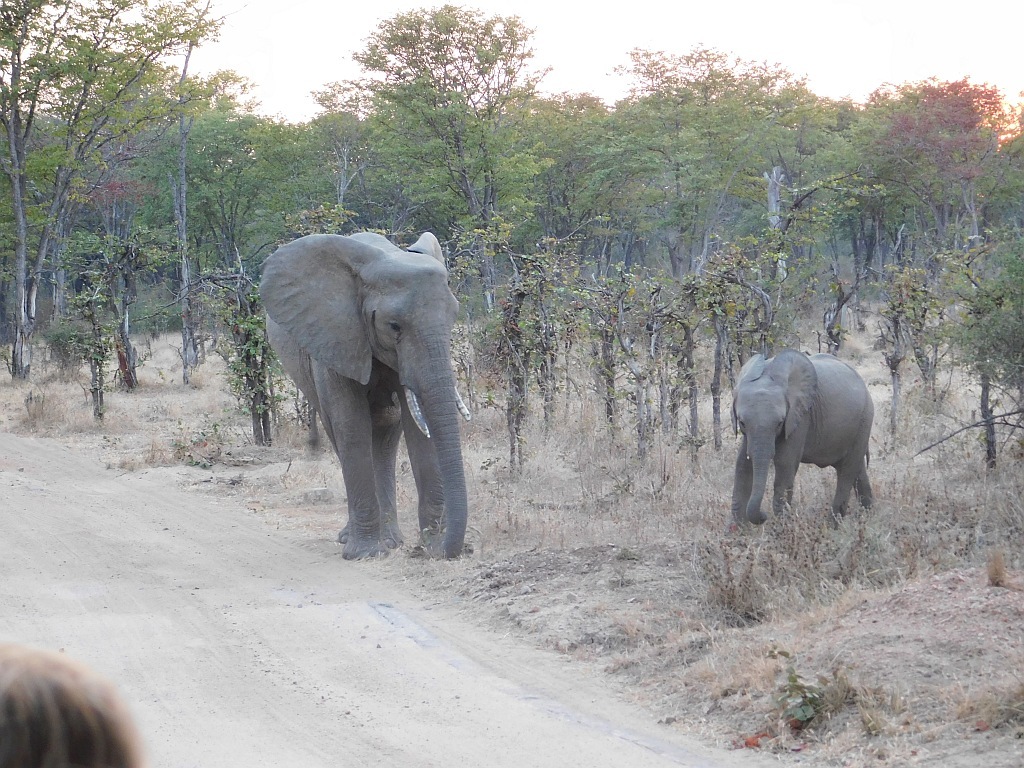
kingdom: Animalia
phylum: Chordata
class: Mammalia
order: Proboscidea
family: Elephantidae
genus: Loxodonta
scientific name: Loxodonta africana
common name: African elephant
